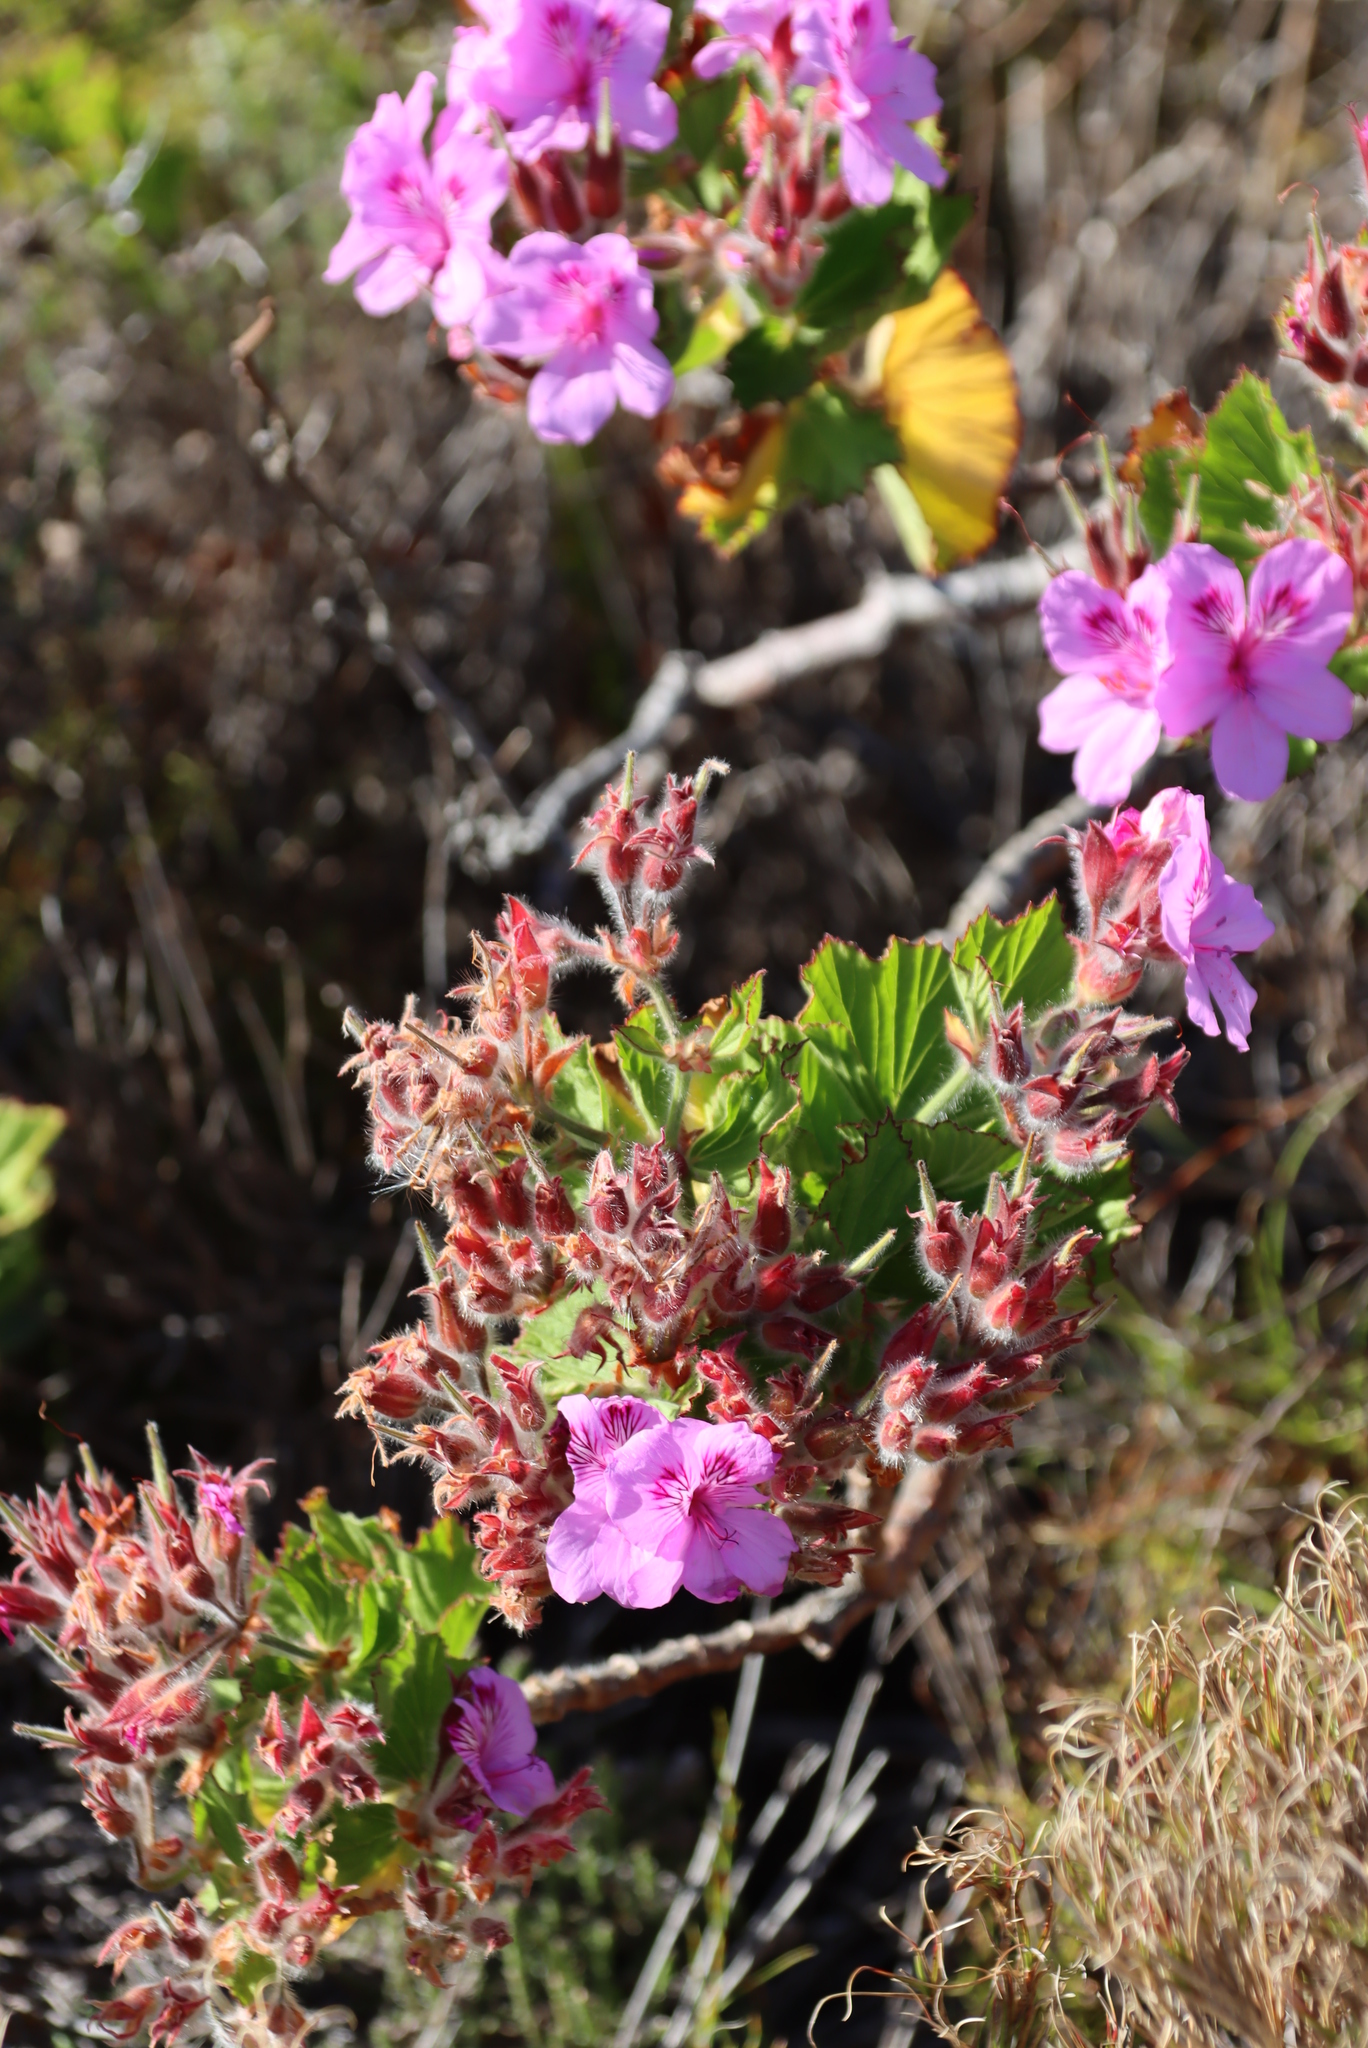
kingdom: Plantae
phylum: Tracheophyta
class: Magnoliopsida
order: Geraniales
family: Geraniaceae
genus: Pelargonium
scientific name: Pelargonium cucullatum
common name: Tree pelargonium
